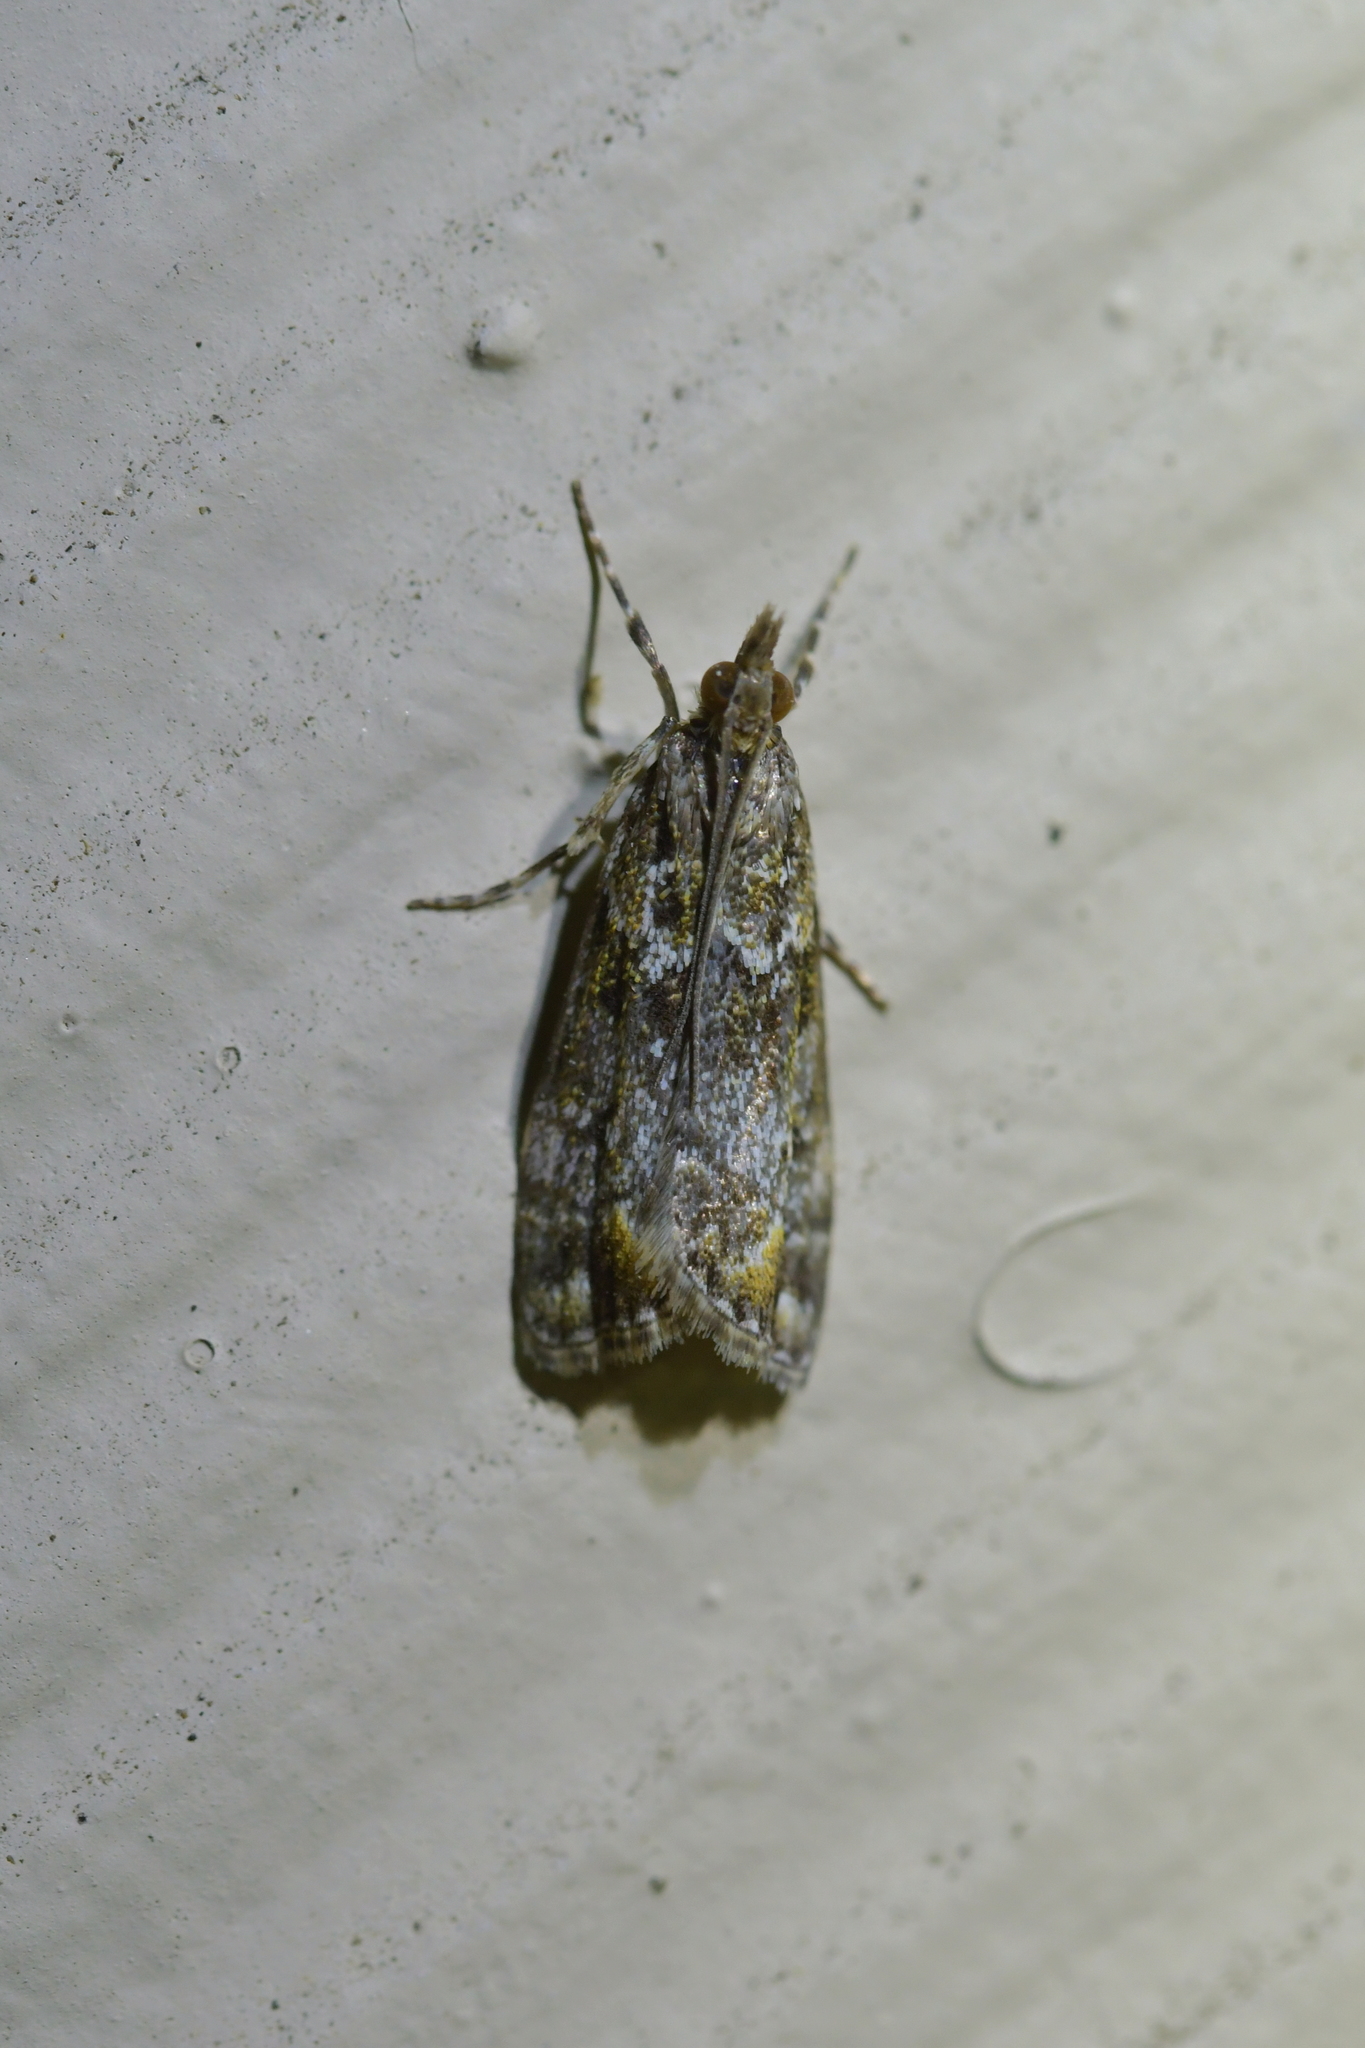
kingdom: Animalia
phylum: Arthropoda
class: Insecta
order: Lepidoptera
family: Crambidae
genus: Eudonia
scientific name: Eudonia minualis
